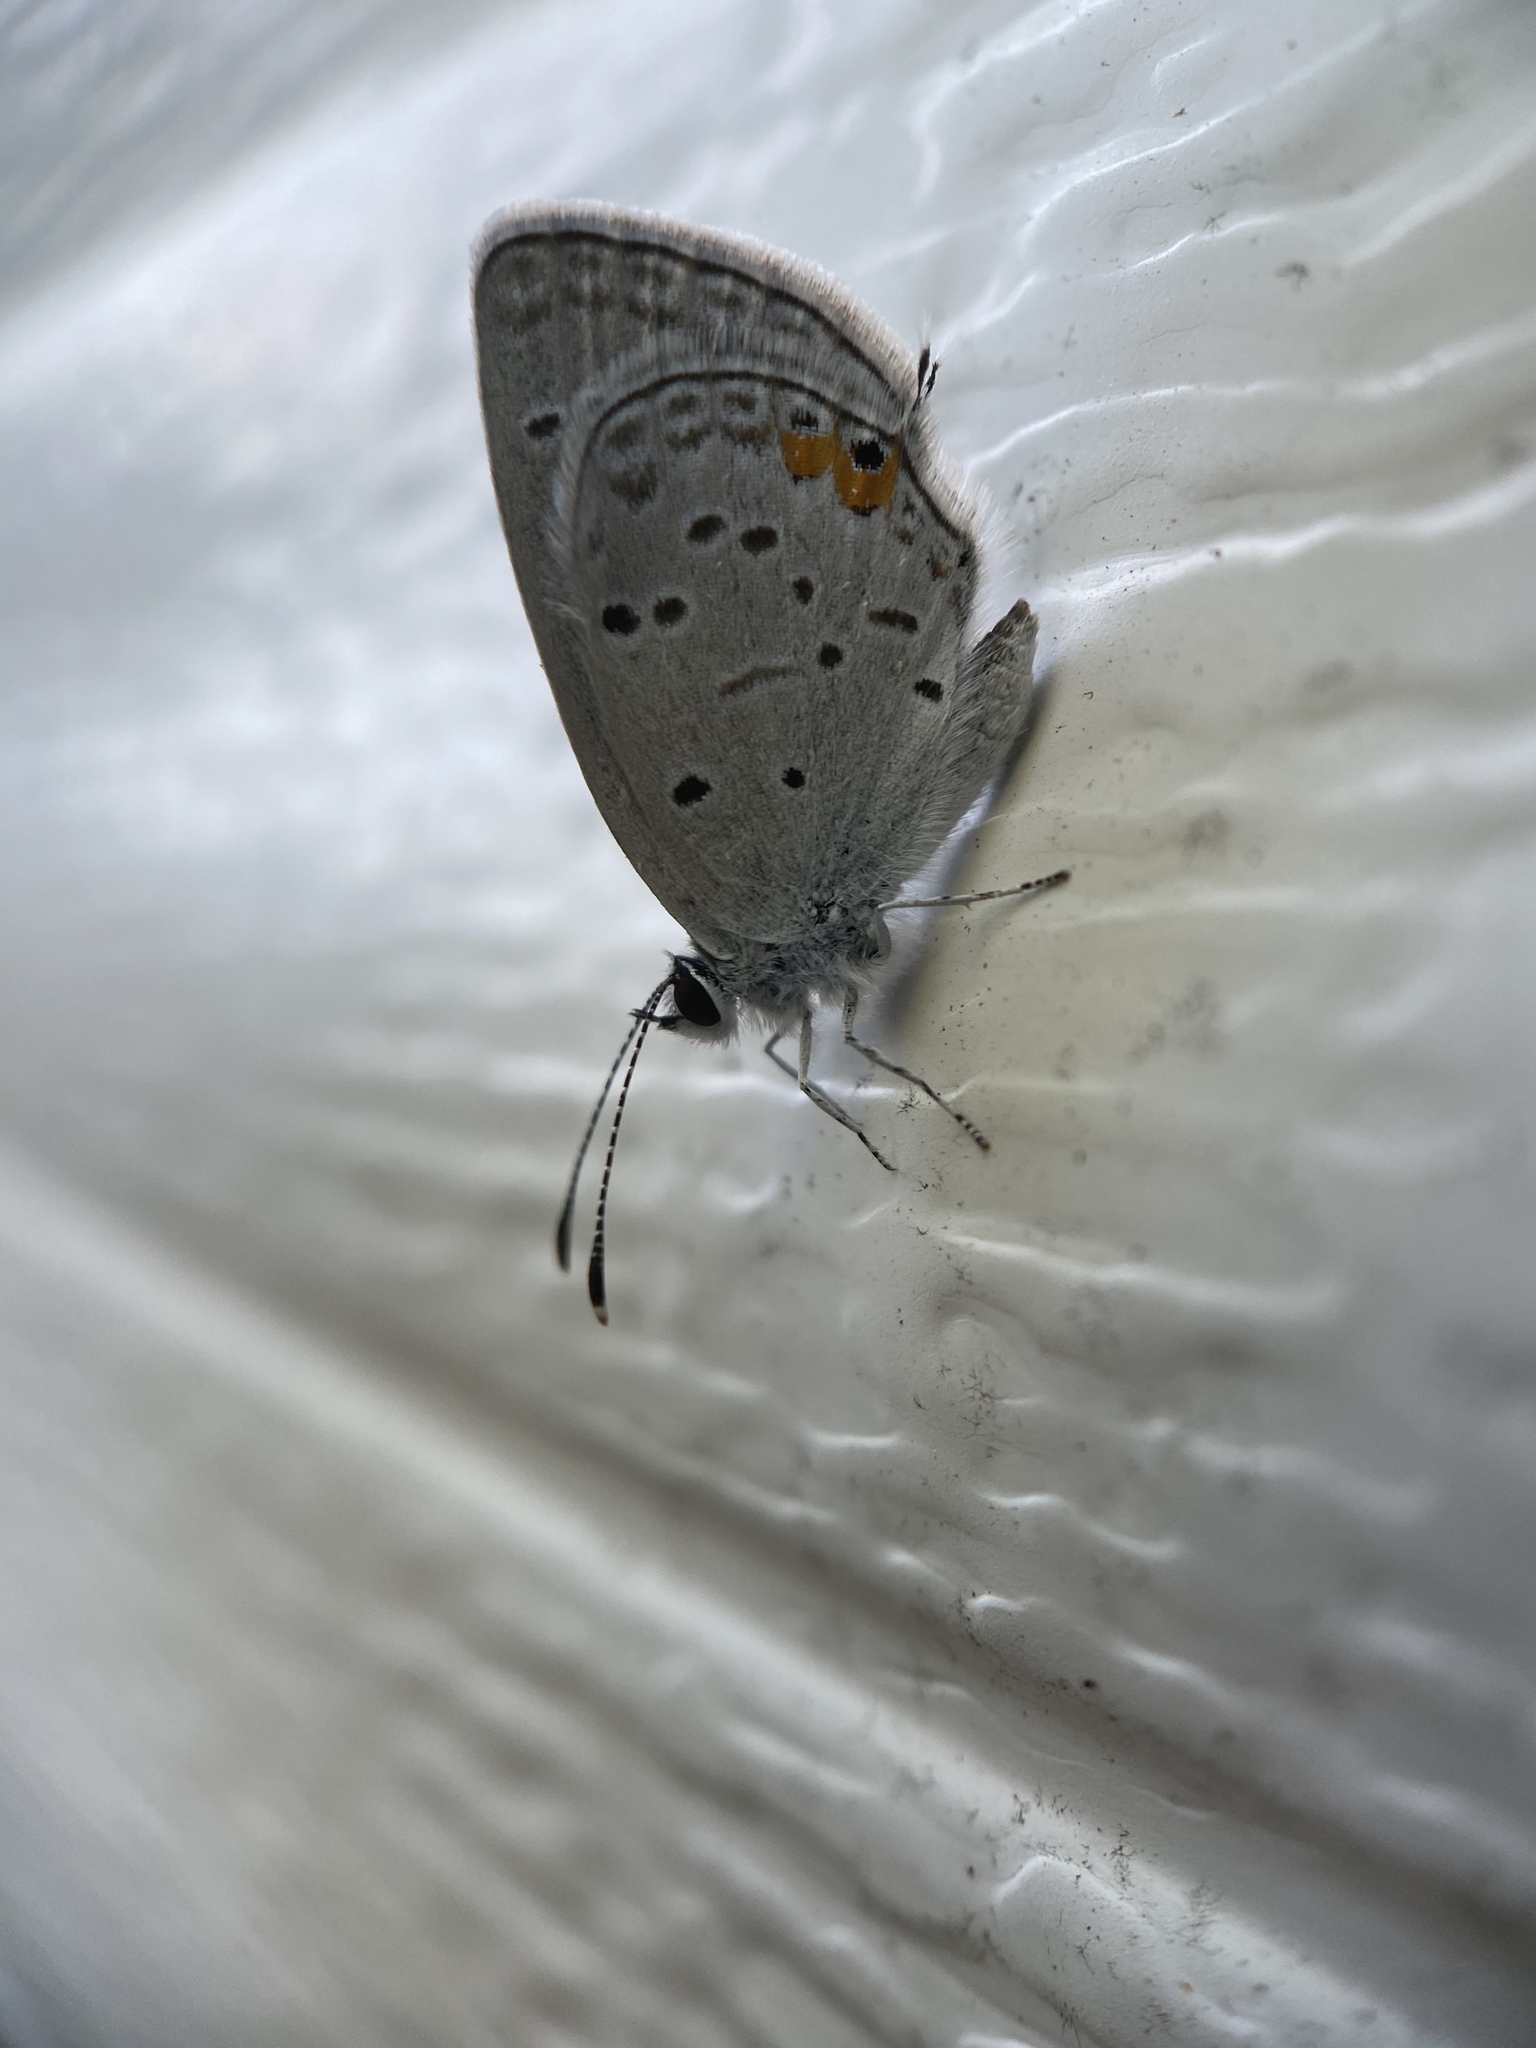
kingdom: Animalia
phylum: Arthropoda
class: Insecta
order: Lepidoptera
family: Lycaenidae
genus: Elkalyce
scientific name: Elkalyce comyntas
